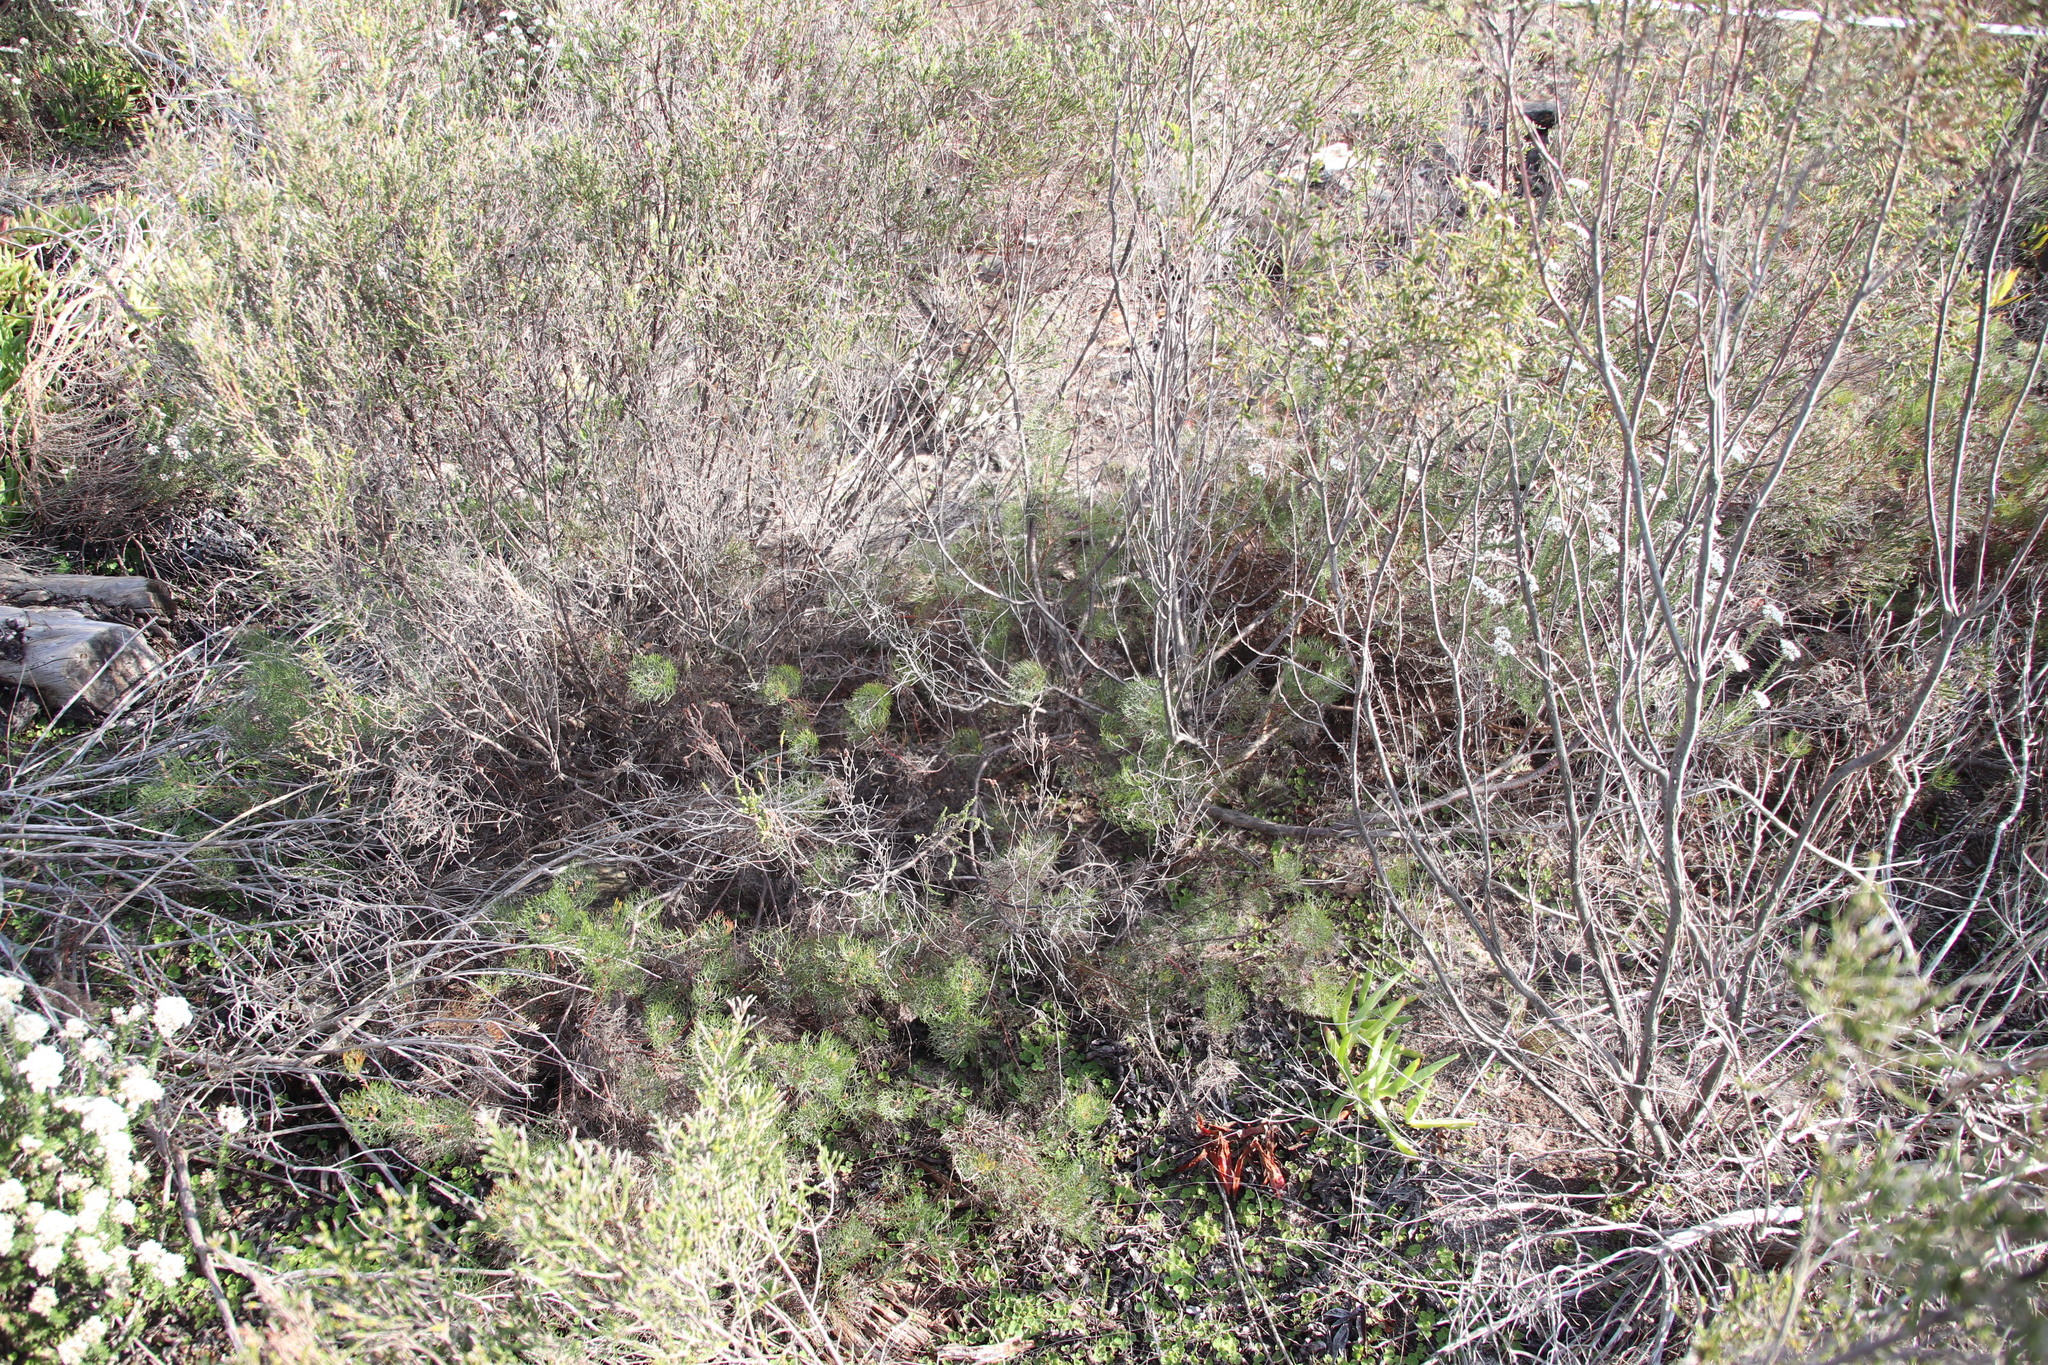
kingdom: Plantae
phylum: Tracheophyta
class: Magnoliopsida
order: Proteales
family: Proteaceae
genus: Serruria
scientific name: Serruria fasciflora
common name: Common pin spiderhead
